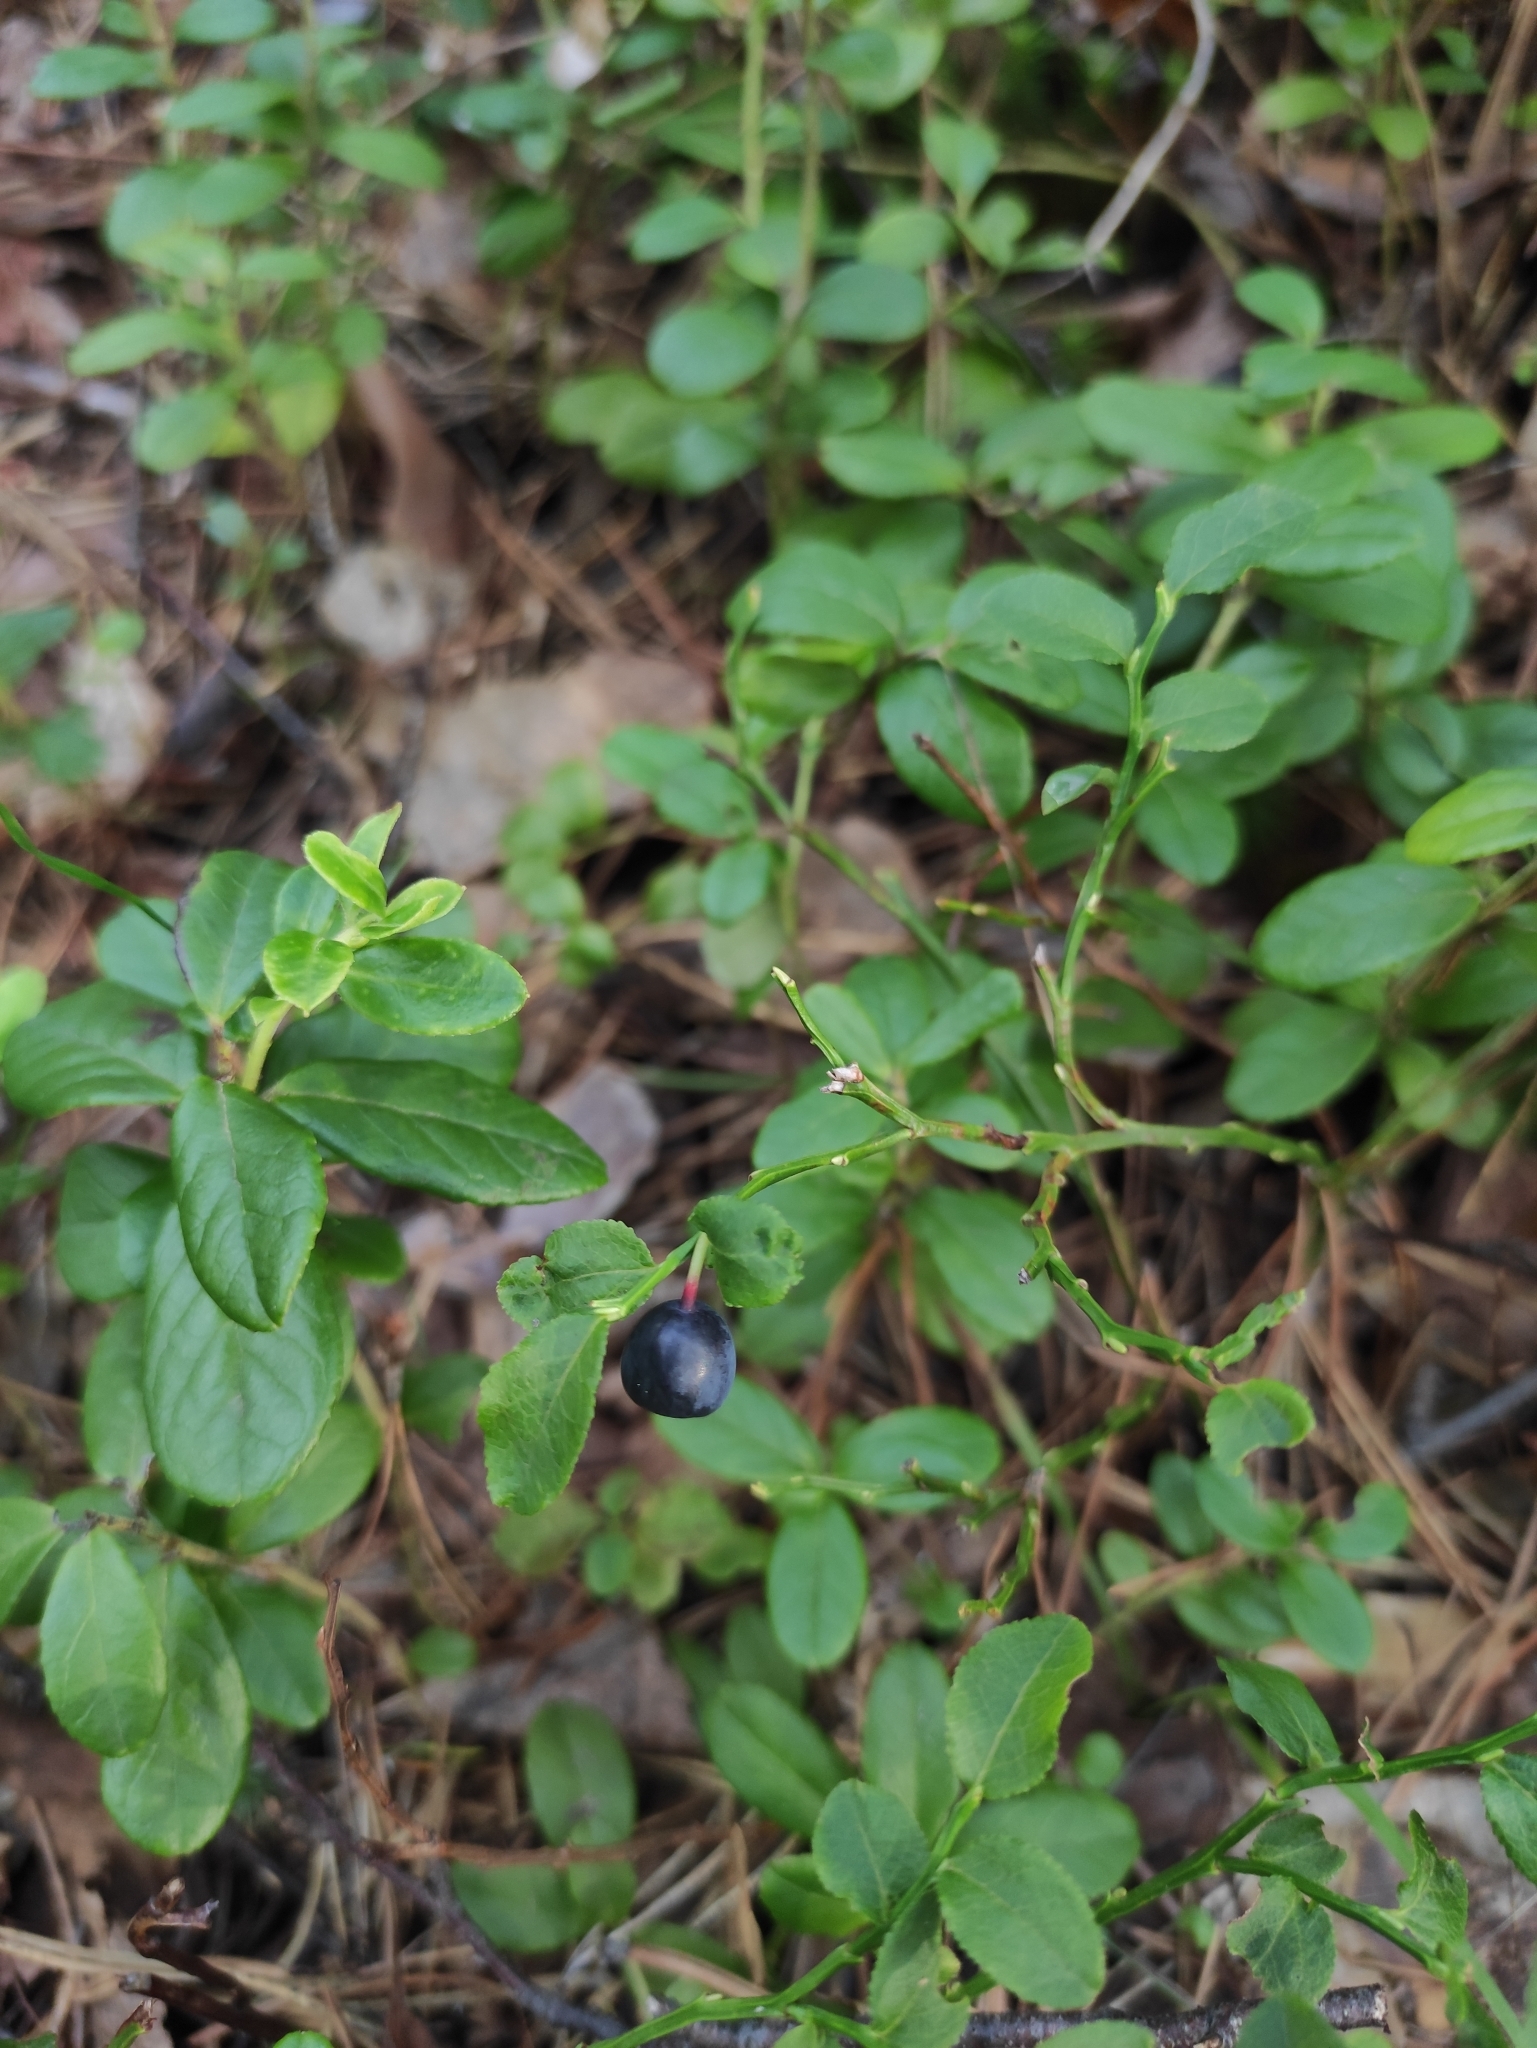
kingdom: Plantae
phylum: Tracheophyta
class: Magnoliopsida
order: Ericales
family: Ericaceae
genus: Vaccinium
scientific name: Vaccinium myrtillus
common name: Bilberry
